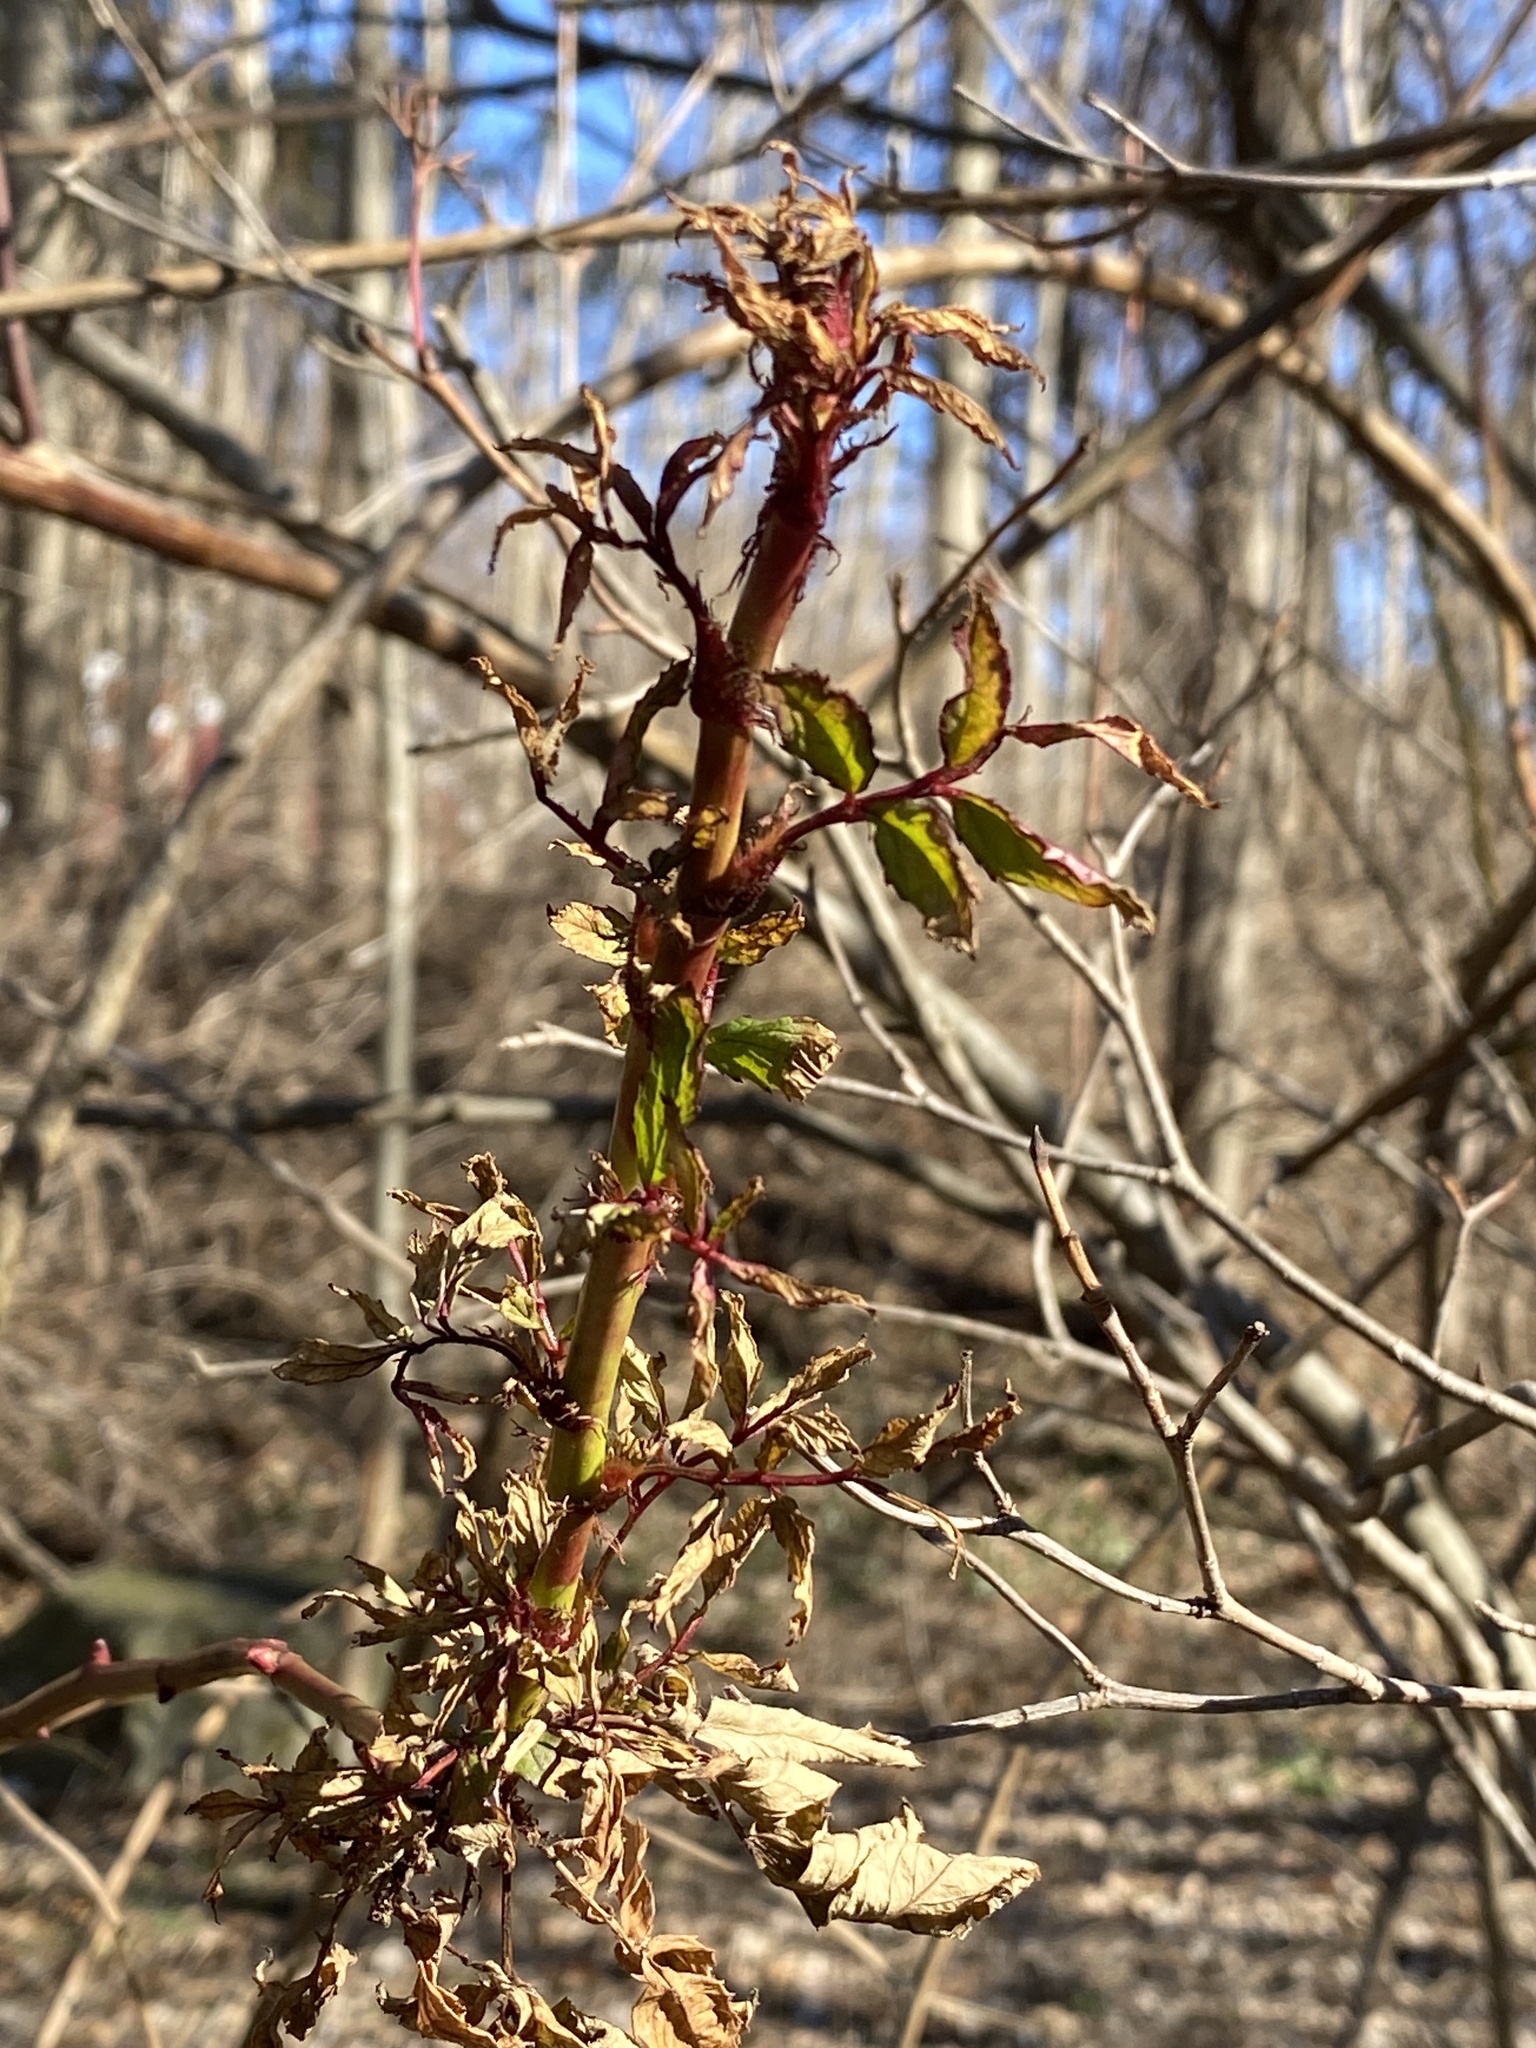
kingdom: Viruses
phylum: Negarnaviricota
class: Ellioviricetes
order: Bunyavirales
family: Fimoviridae
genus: Emaravirus
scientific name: Emaravirus rosae
